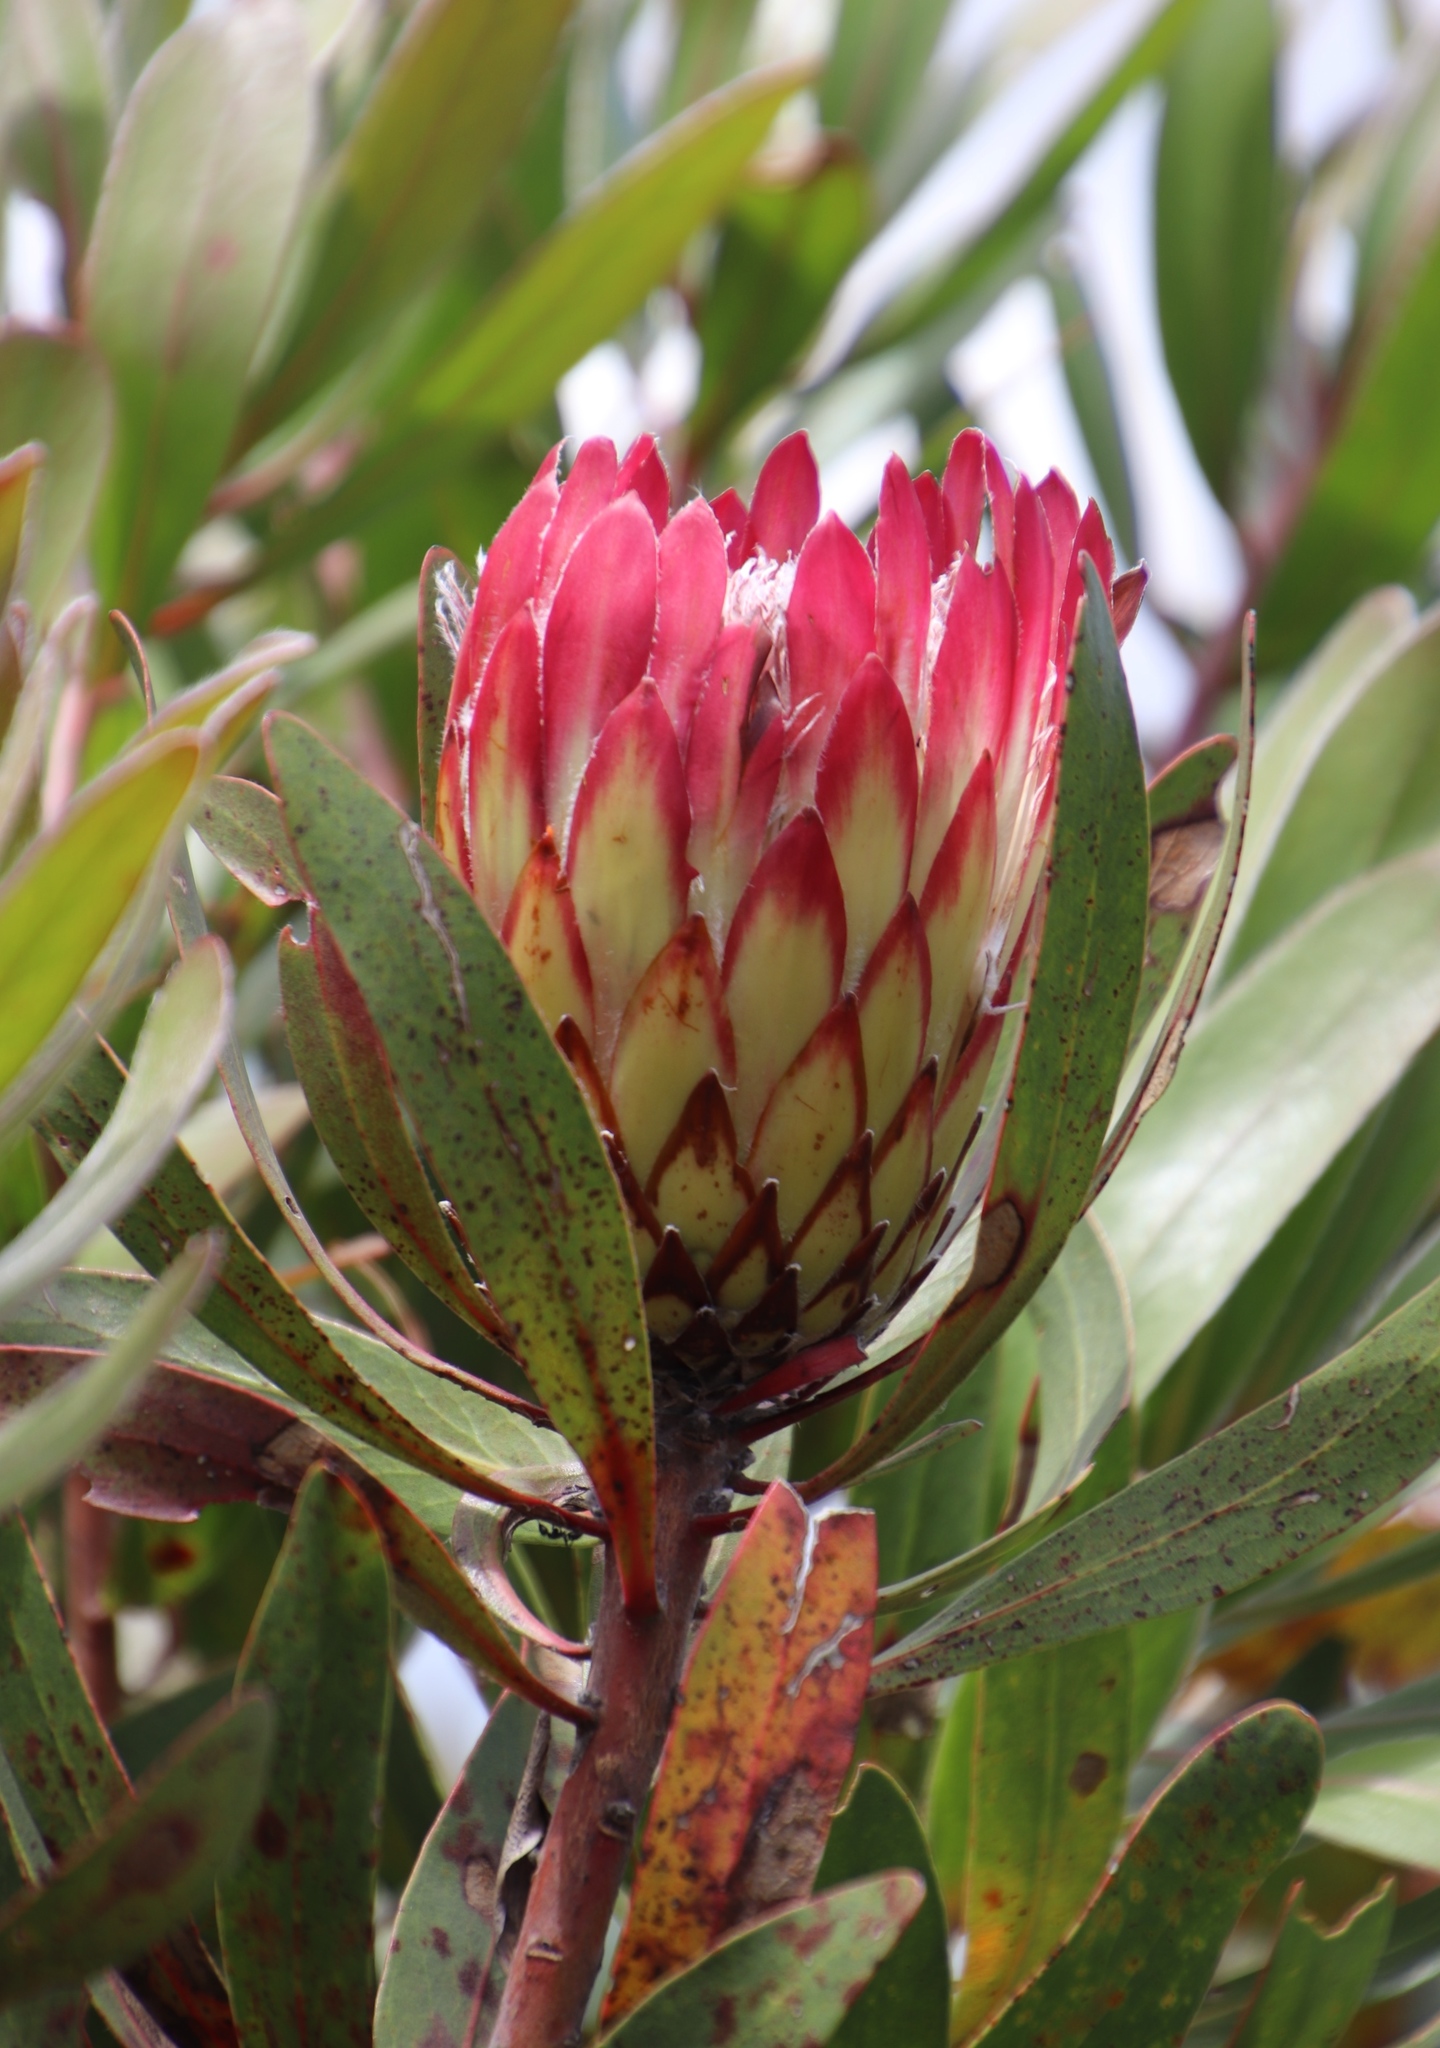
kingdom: Plantae
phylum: Tracheophyta
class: Magnoliopsida
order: Proteales
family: Proteaceae
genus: Protea
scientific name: Protea obtusifolia
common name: Bredasdorp sugarbush
